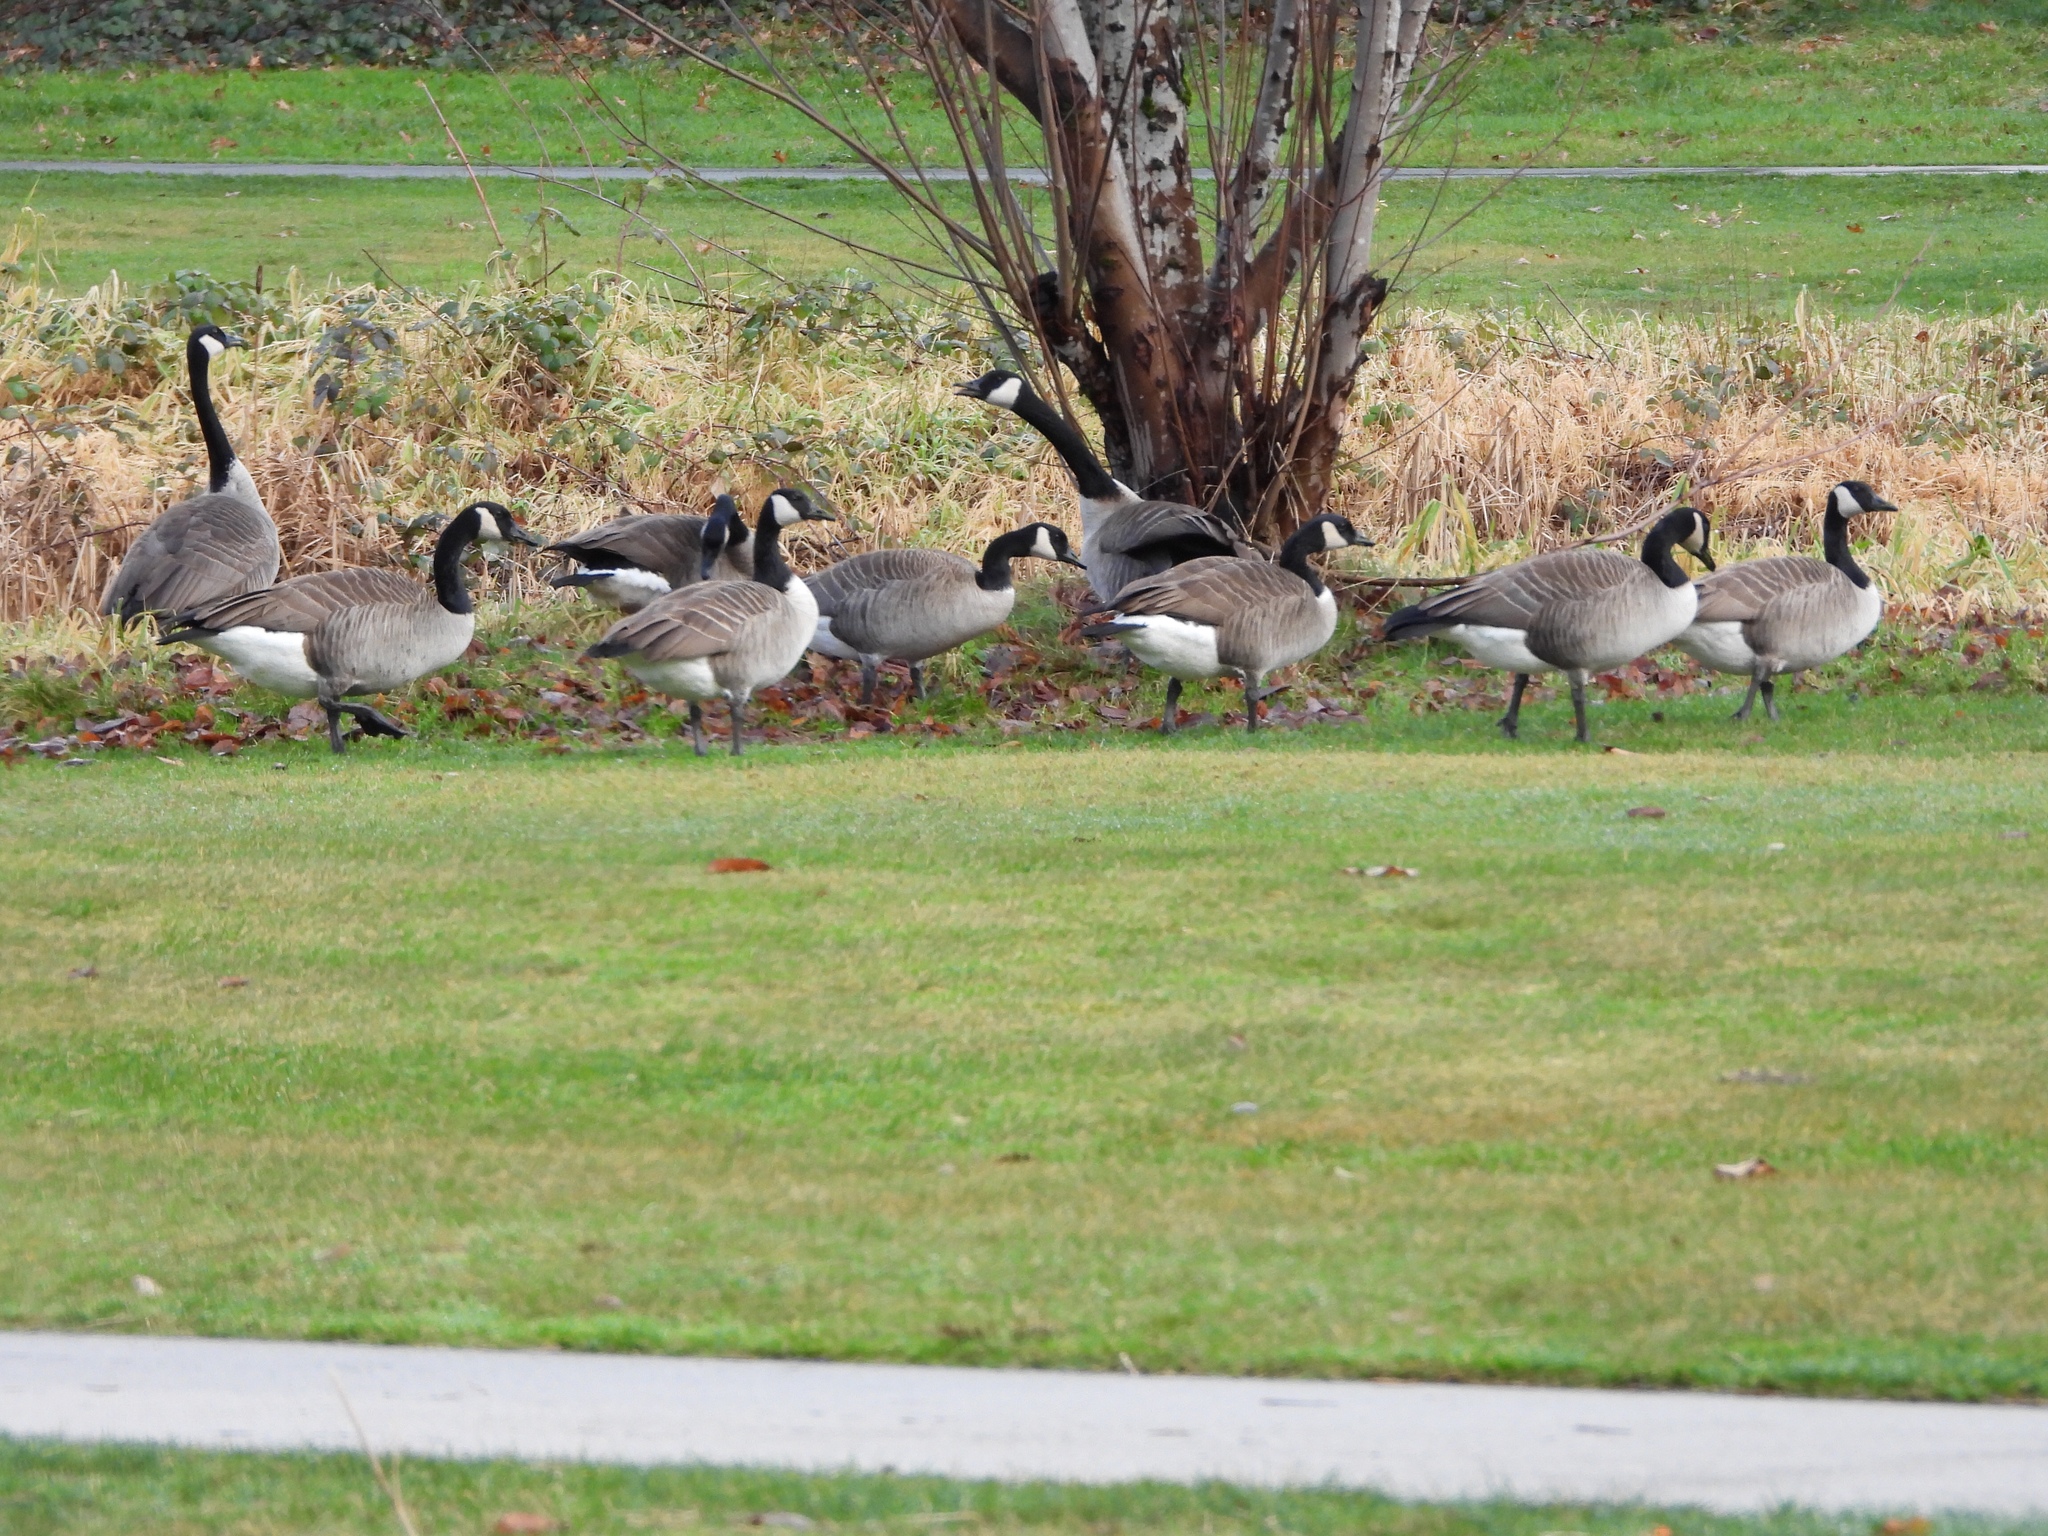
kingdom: Animalia
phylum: Chordata
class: Aves
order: Anseriformes
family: Anatidae
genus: Branta
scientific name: Branta canadensis
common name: Canada goose
